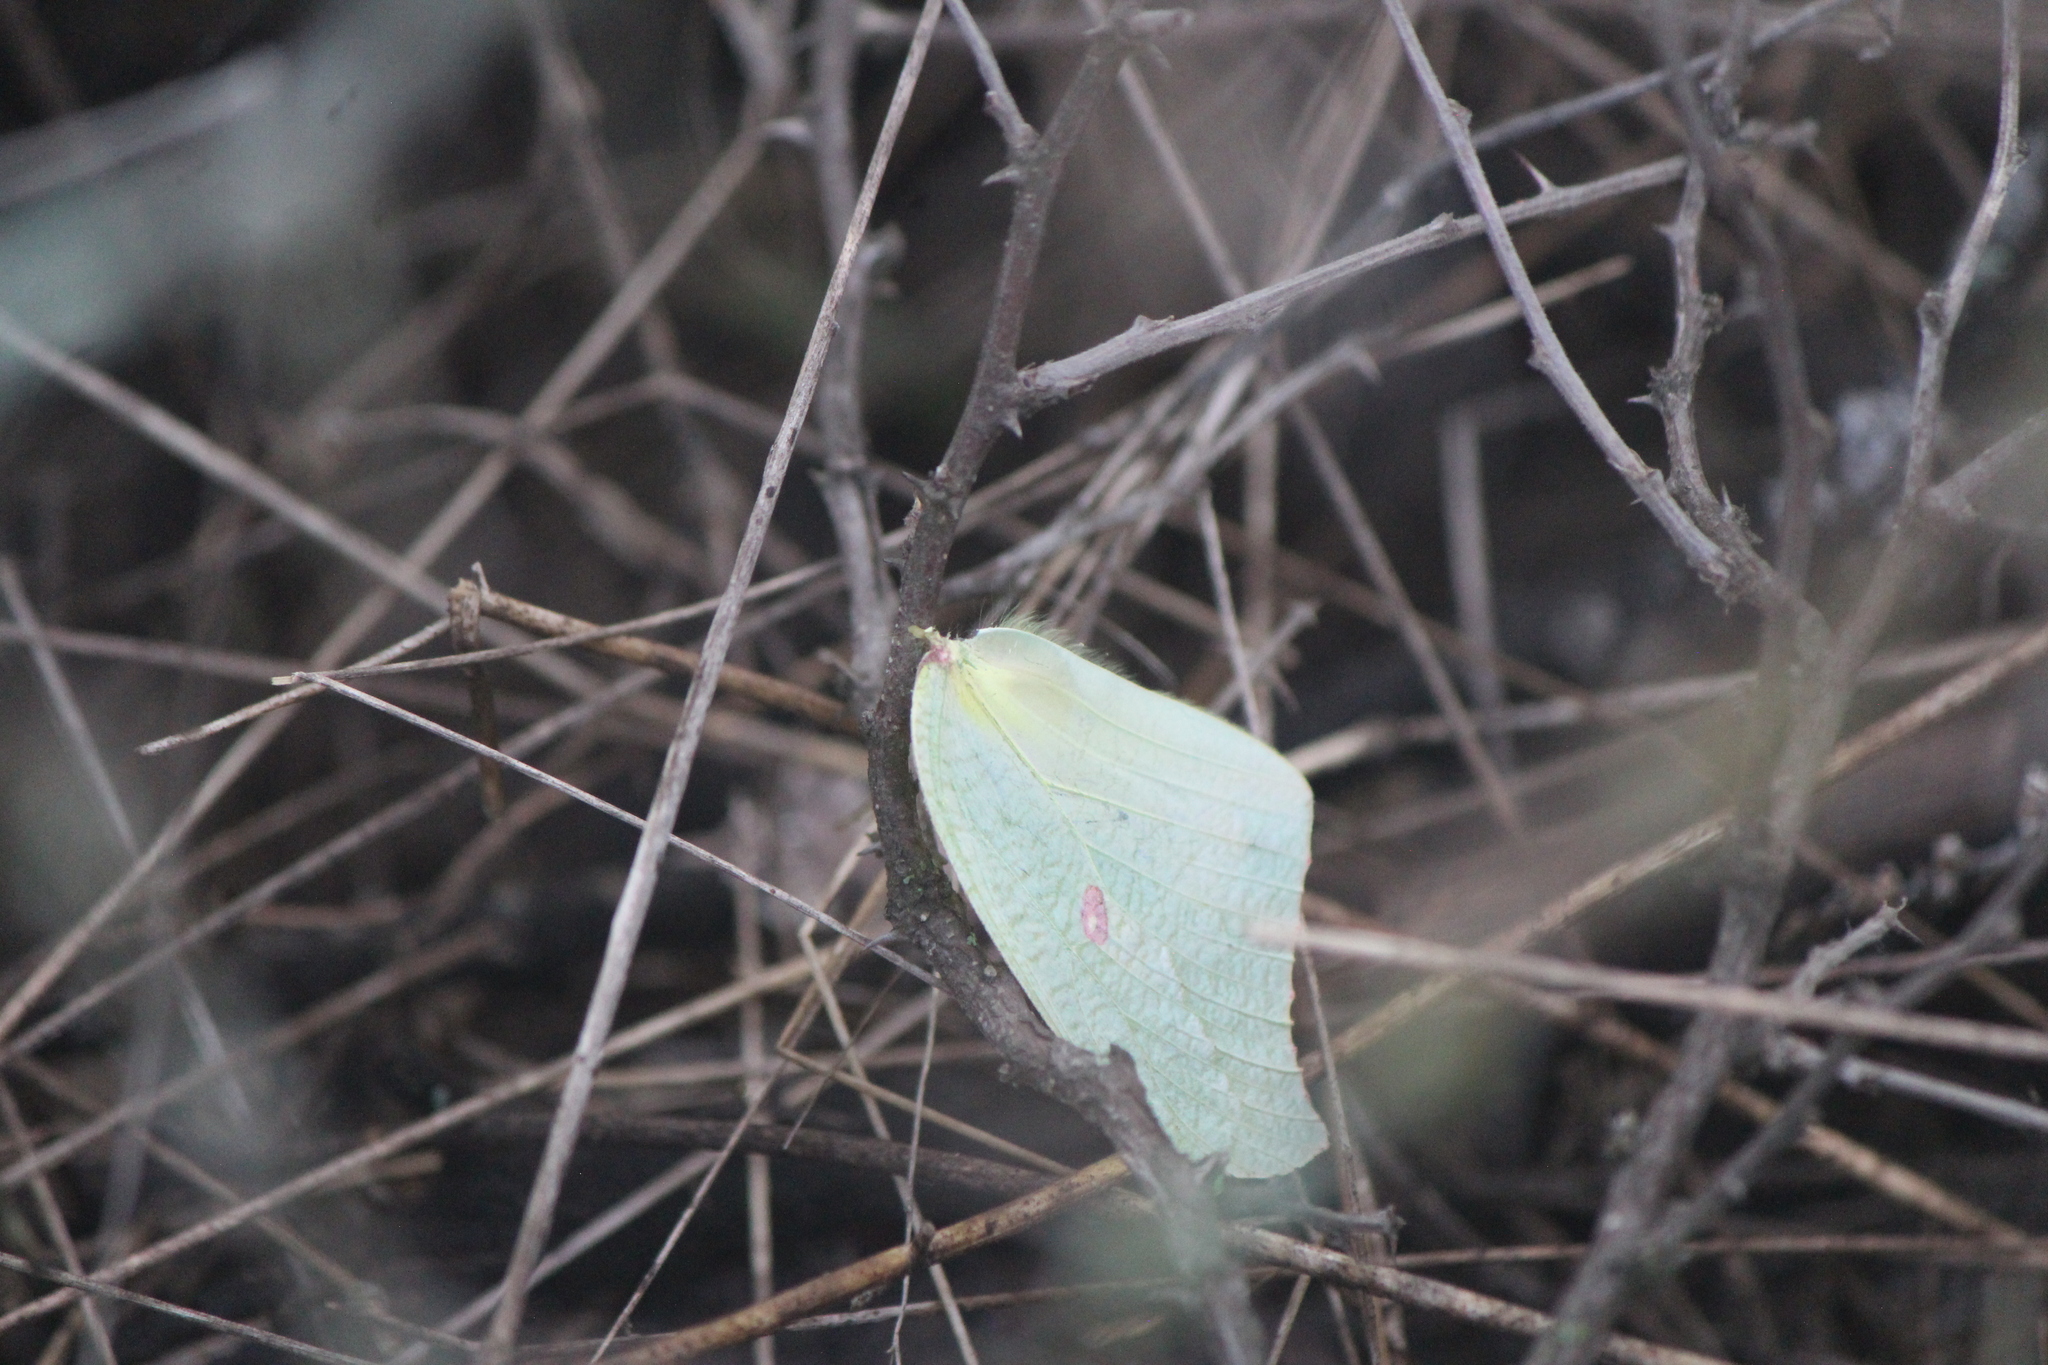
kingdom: Animalia
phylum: Arthropoda
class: Insecta
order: Lepidoptera
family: Pieridae
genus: Anteos
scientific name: Anteos maerula
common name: Angled sulphur
